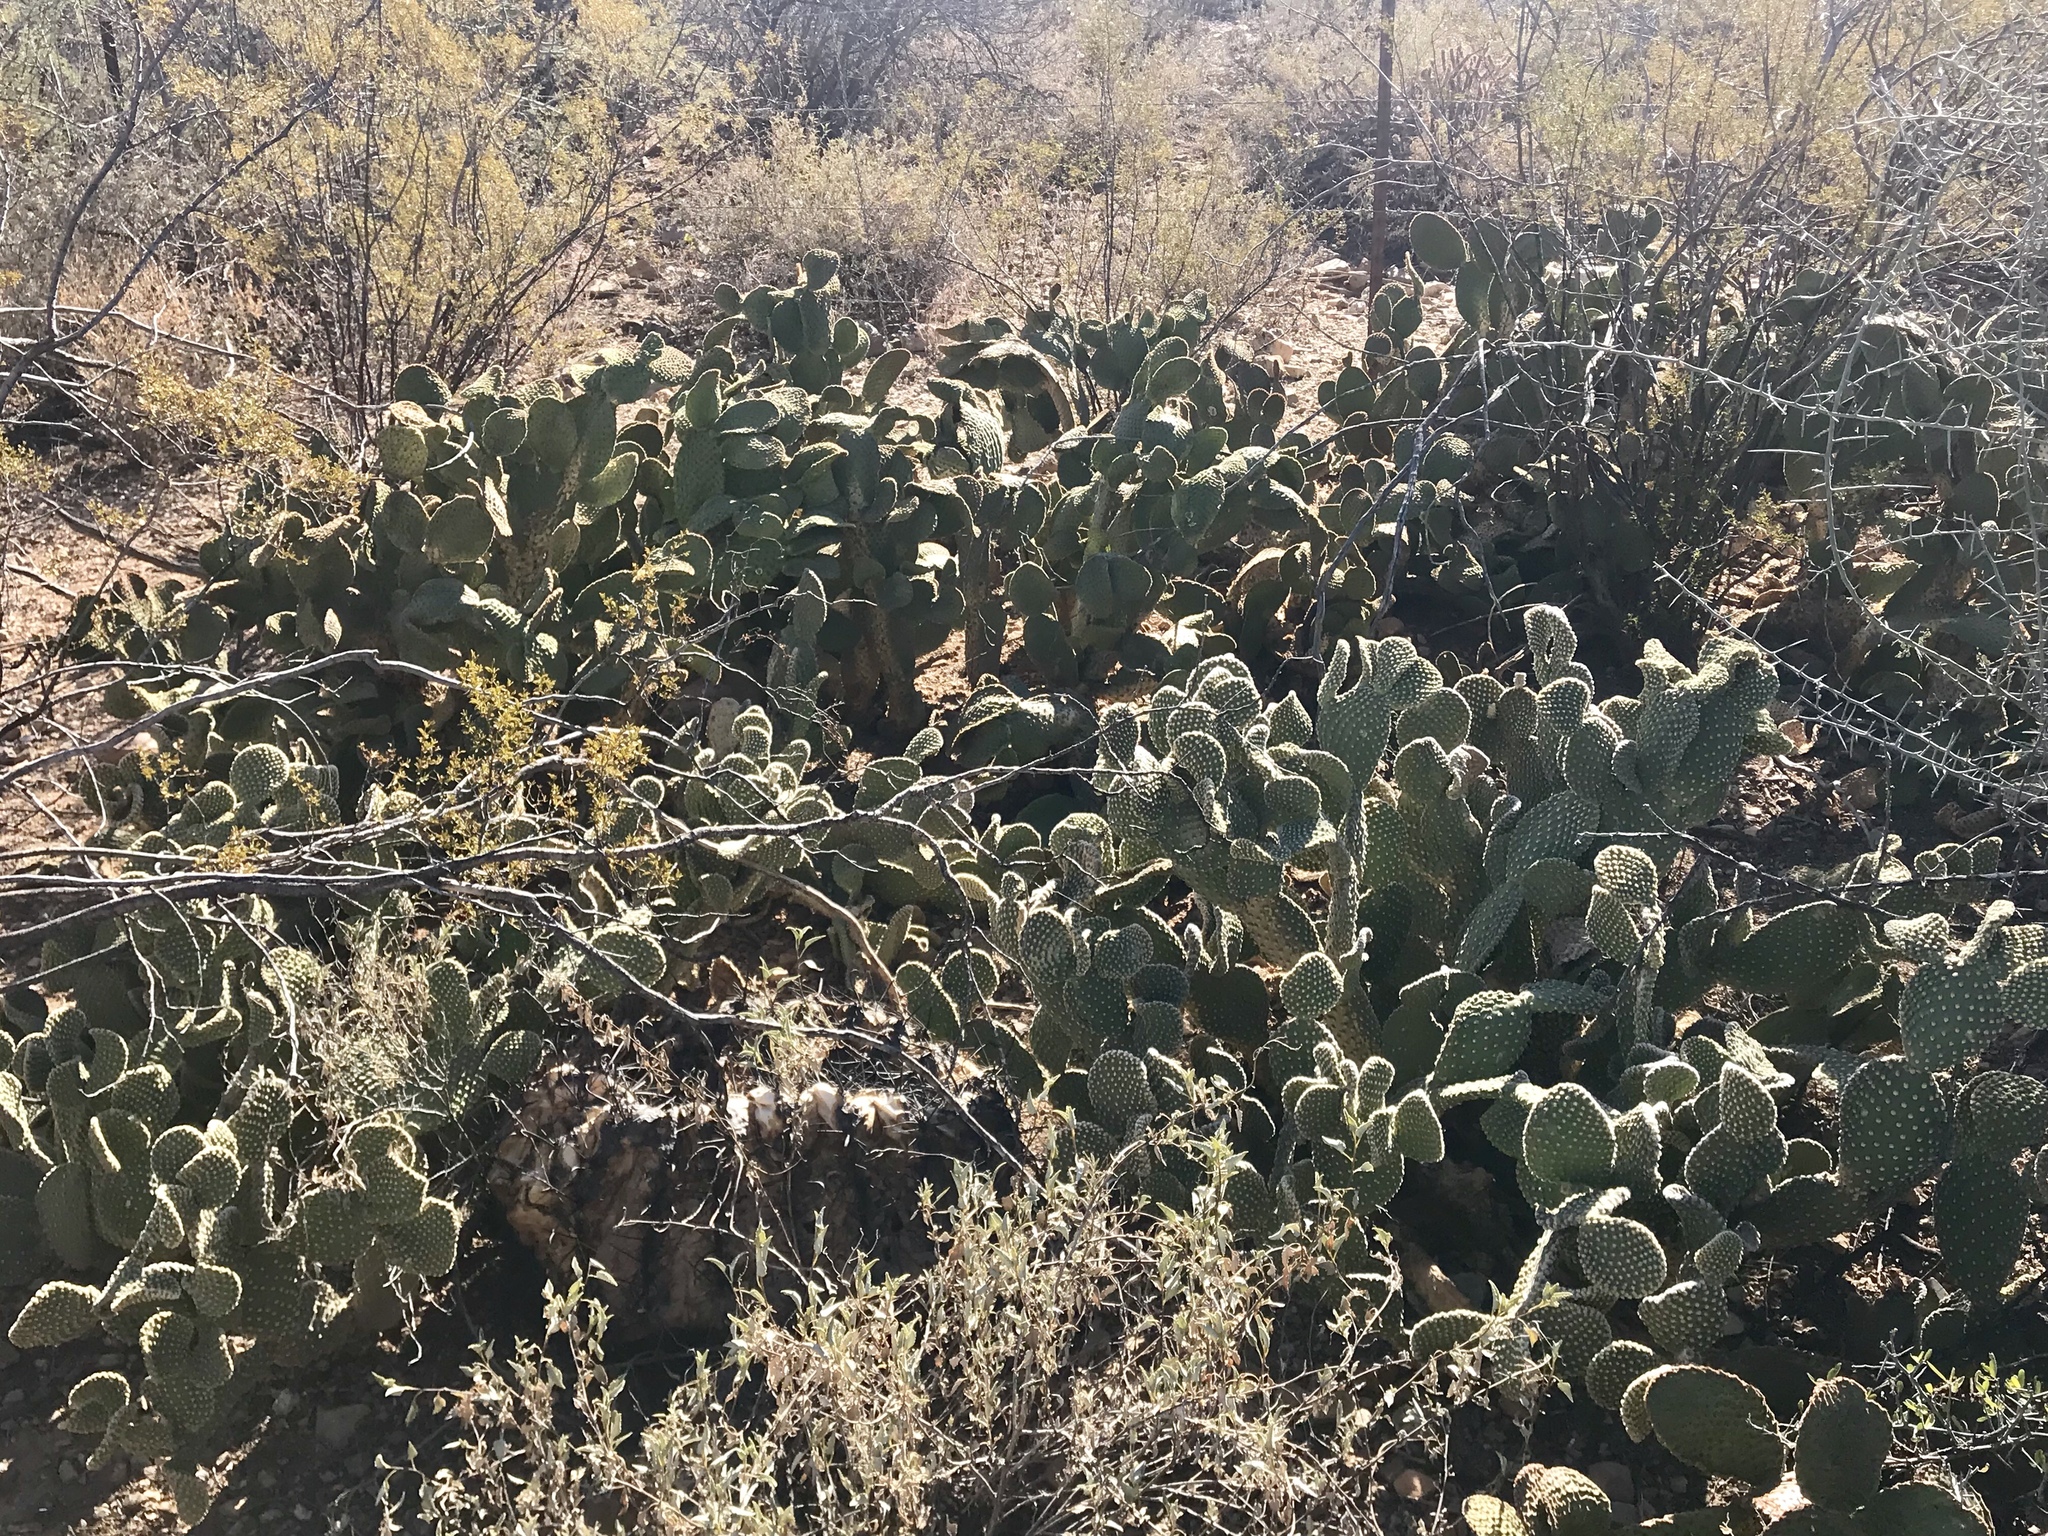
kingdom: Plantae
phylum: Tracheophyta
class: Magnoliopsida
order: Caryophyllales
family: Cactaceae
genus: Opuntia
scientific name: Opuntia microdasys
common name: Angel's-wings
